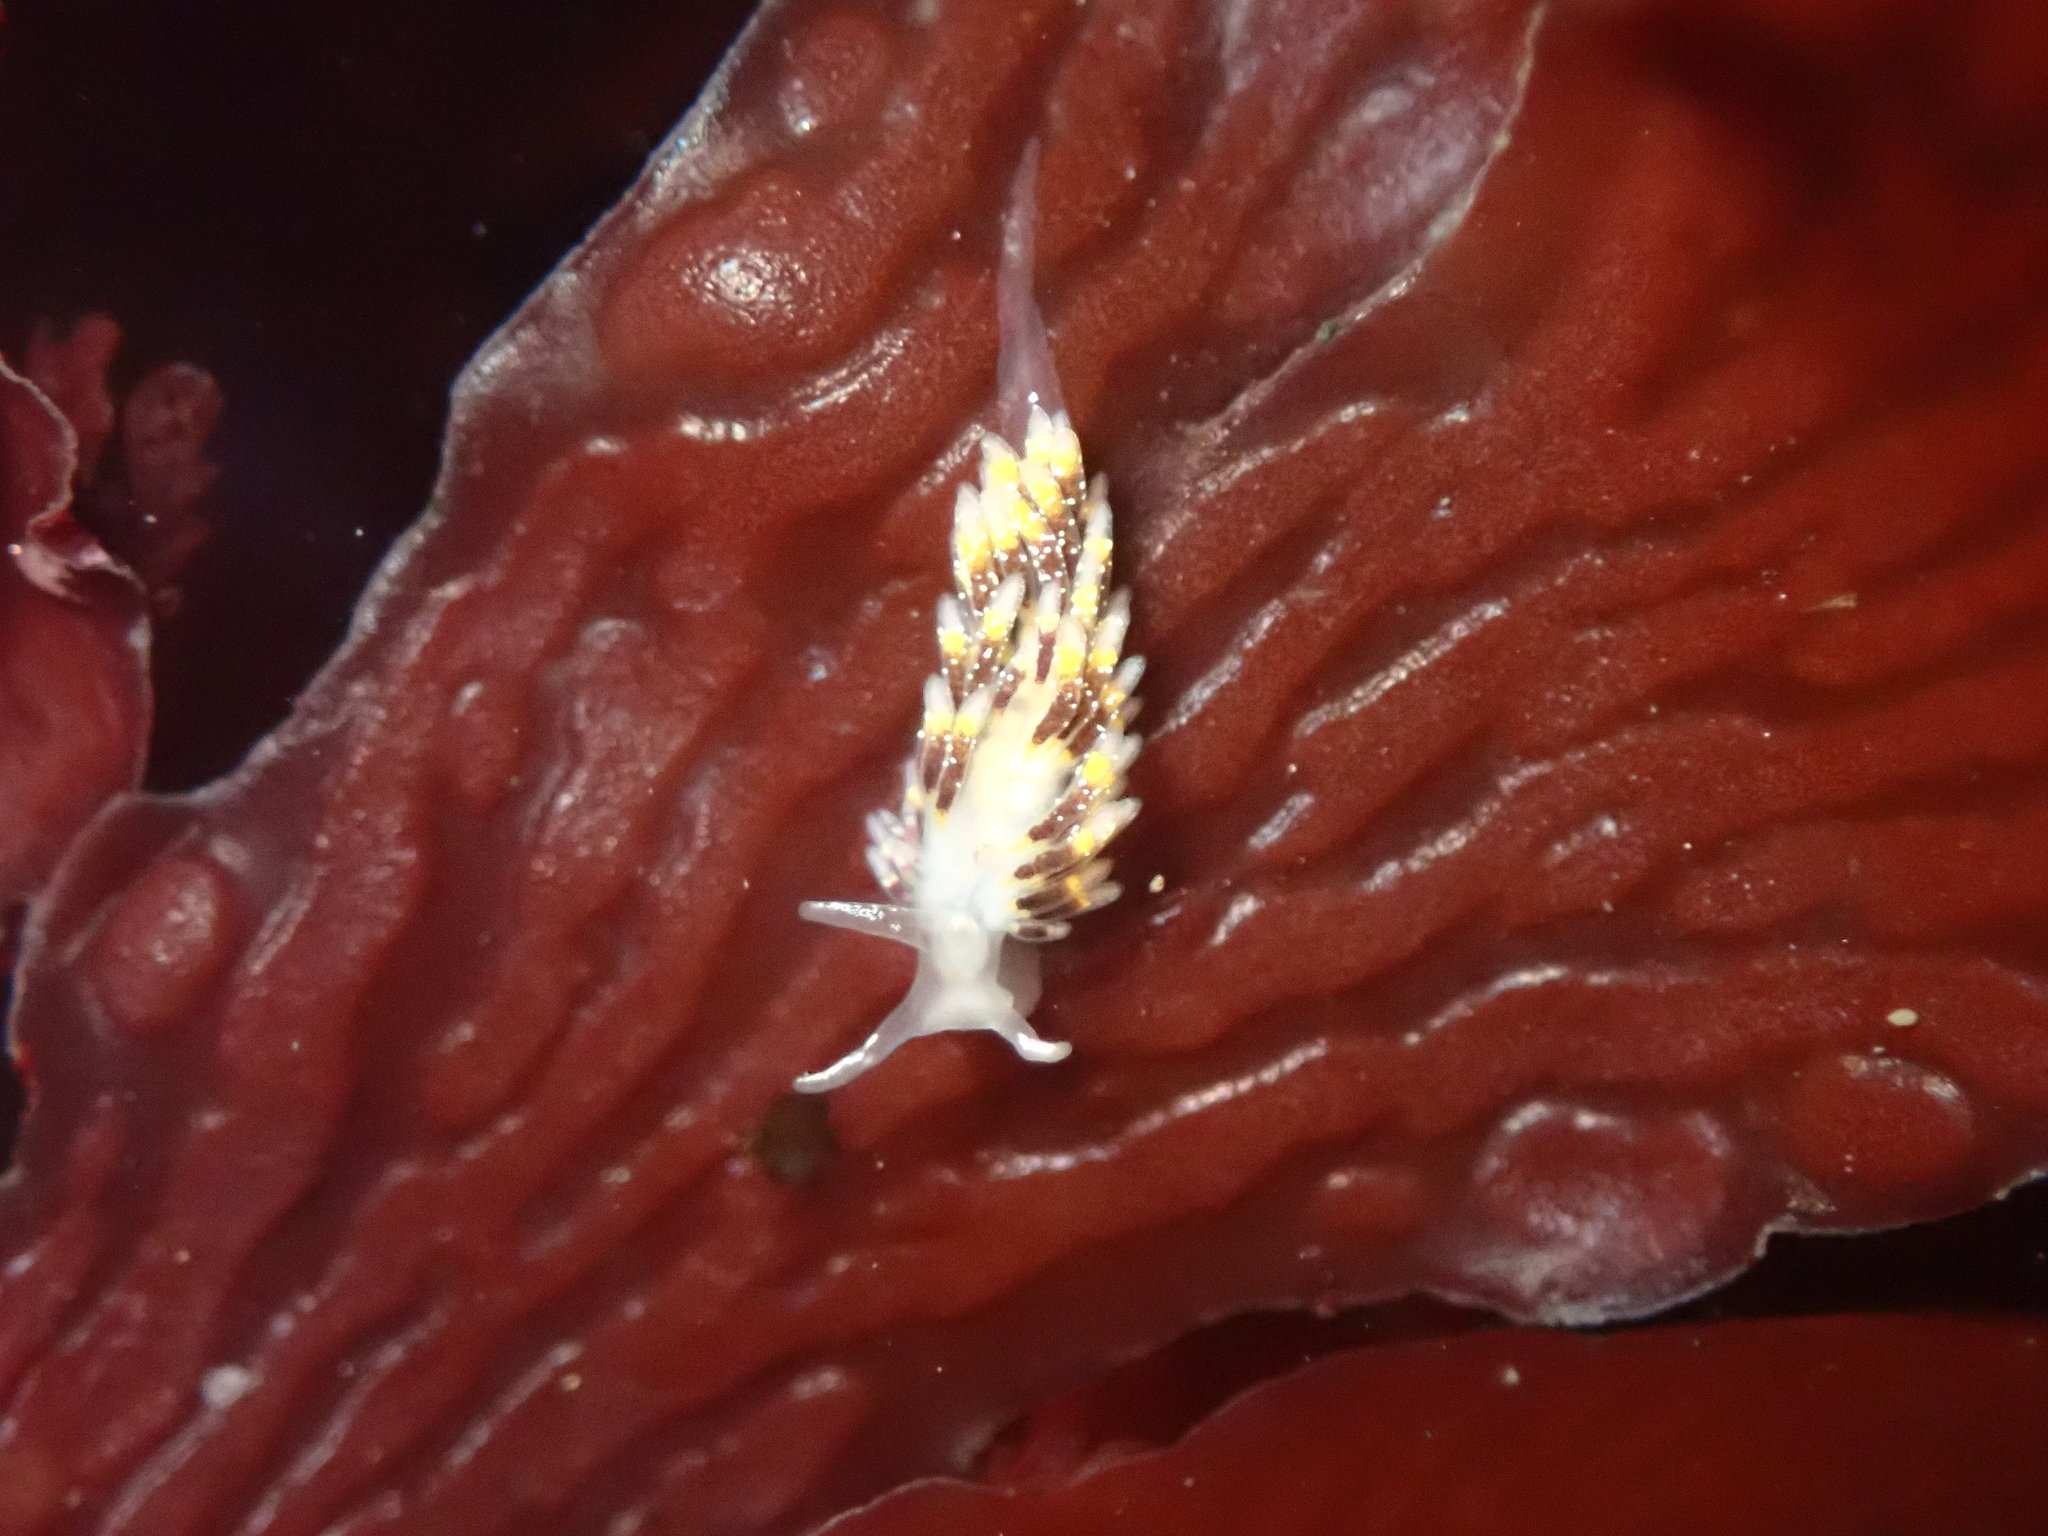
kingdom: Animalia
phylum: Mollusca
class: Gastropoda
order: Nudibranchia
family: Trinchesiidae
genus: Zelentia
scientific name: Zelentia fulgens
